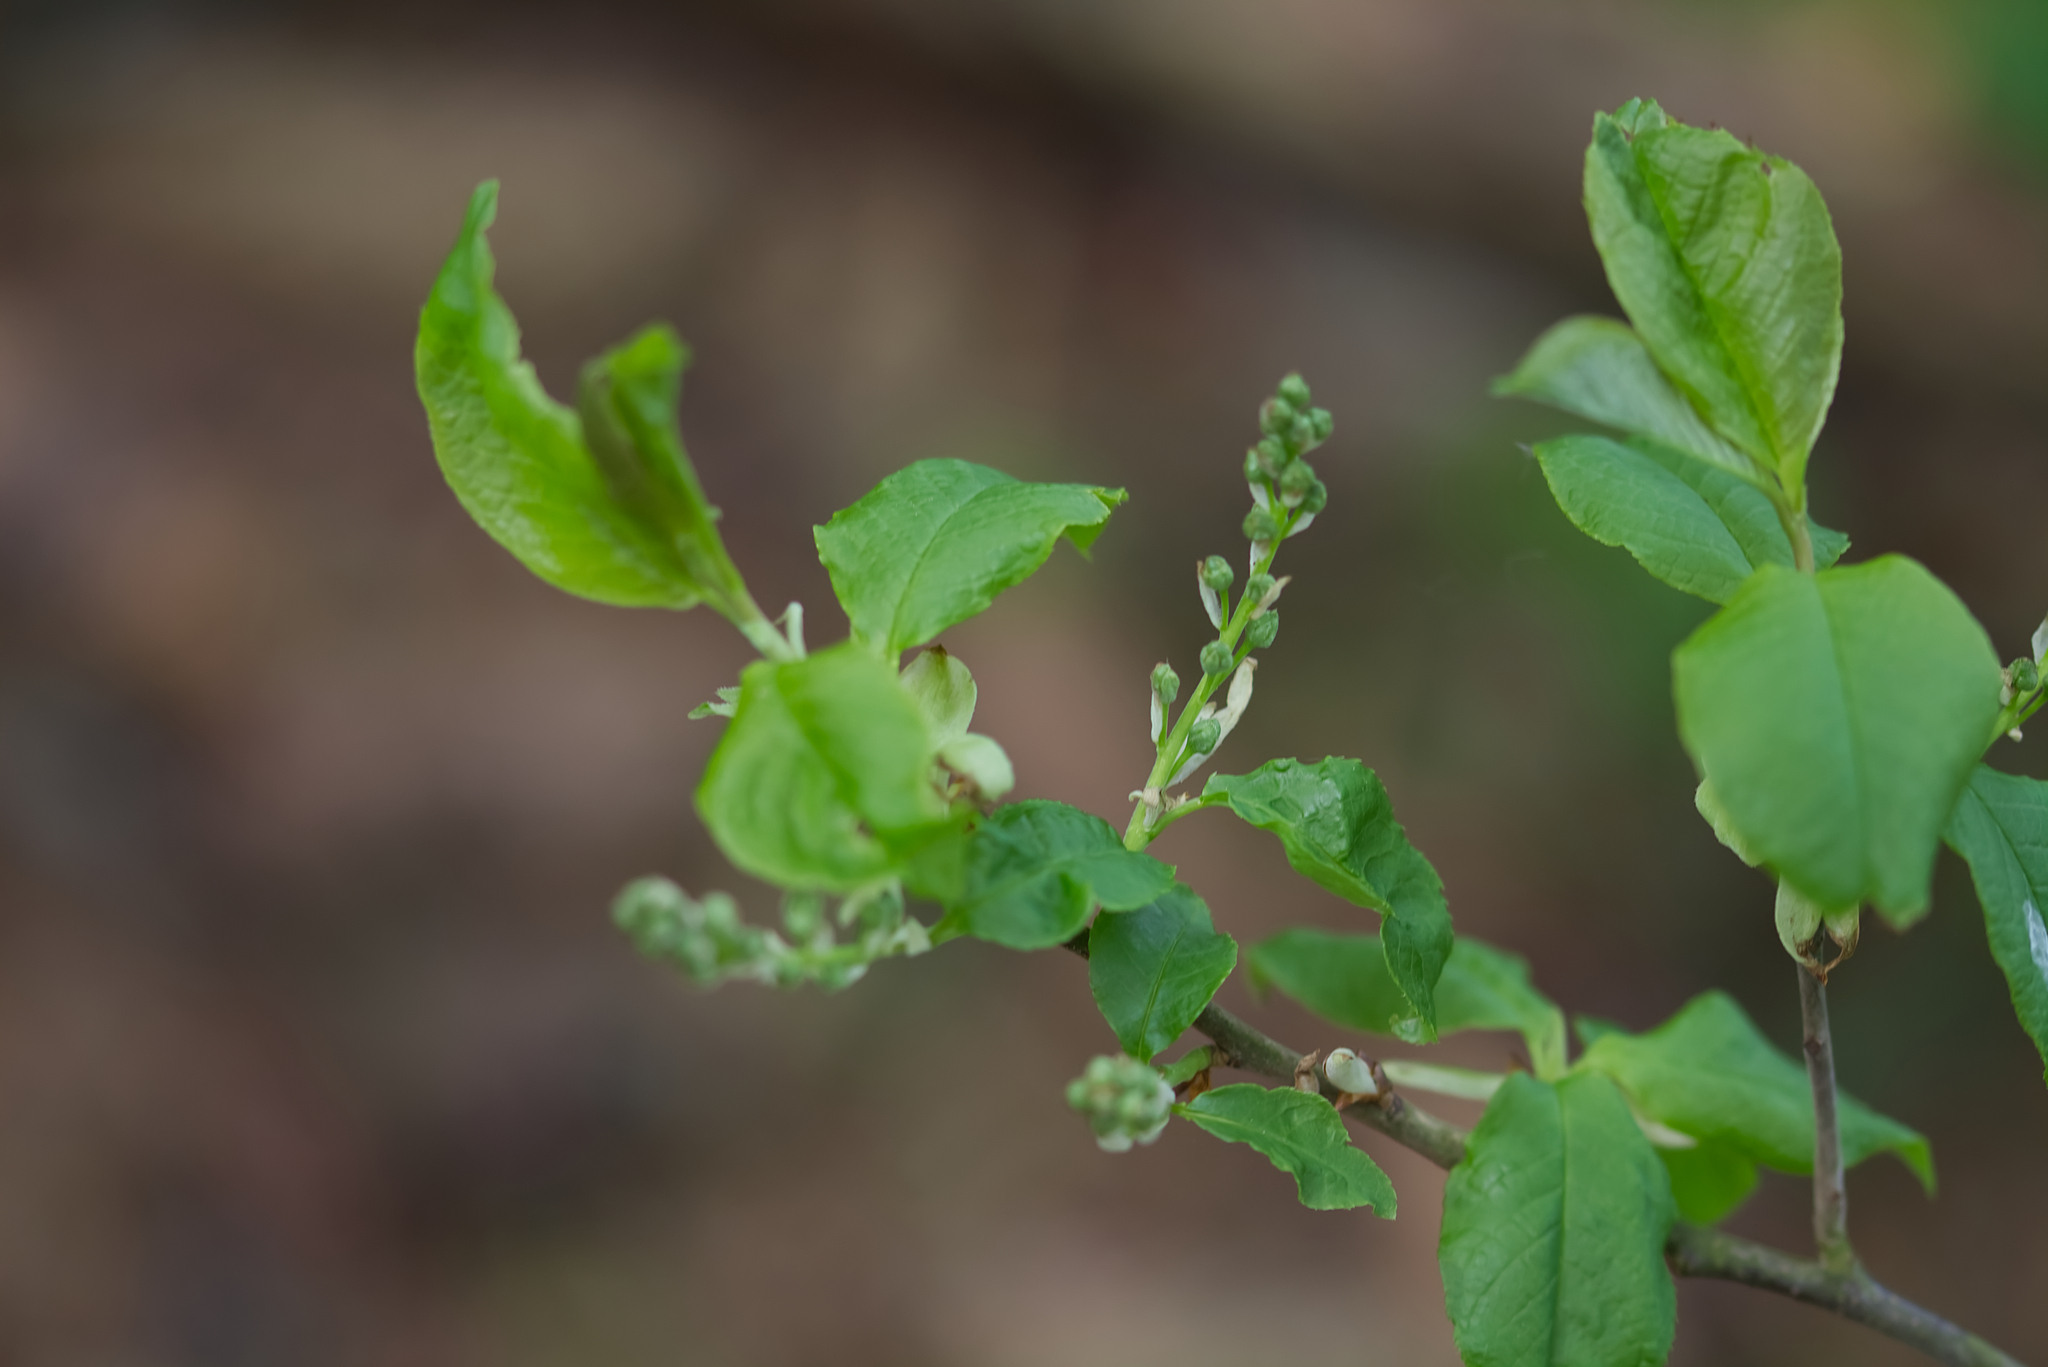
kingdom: Plantae
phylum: Tracheophyta
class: Magnoliopsida
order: Rosales
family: Rosaceae
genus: Prunus
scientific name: Prunus padus
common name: Bird cherry
